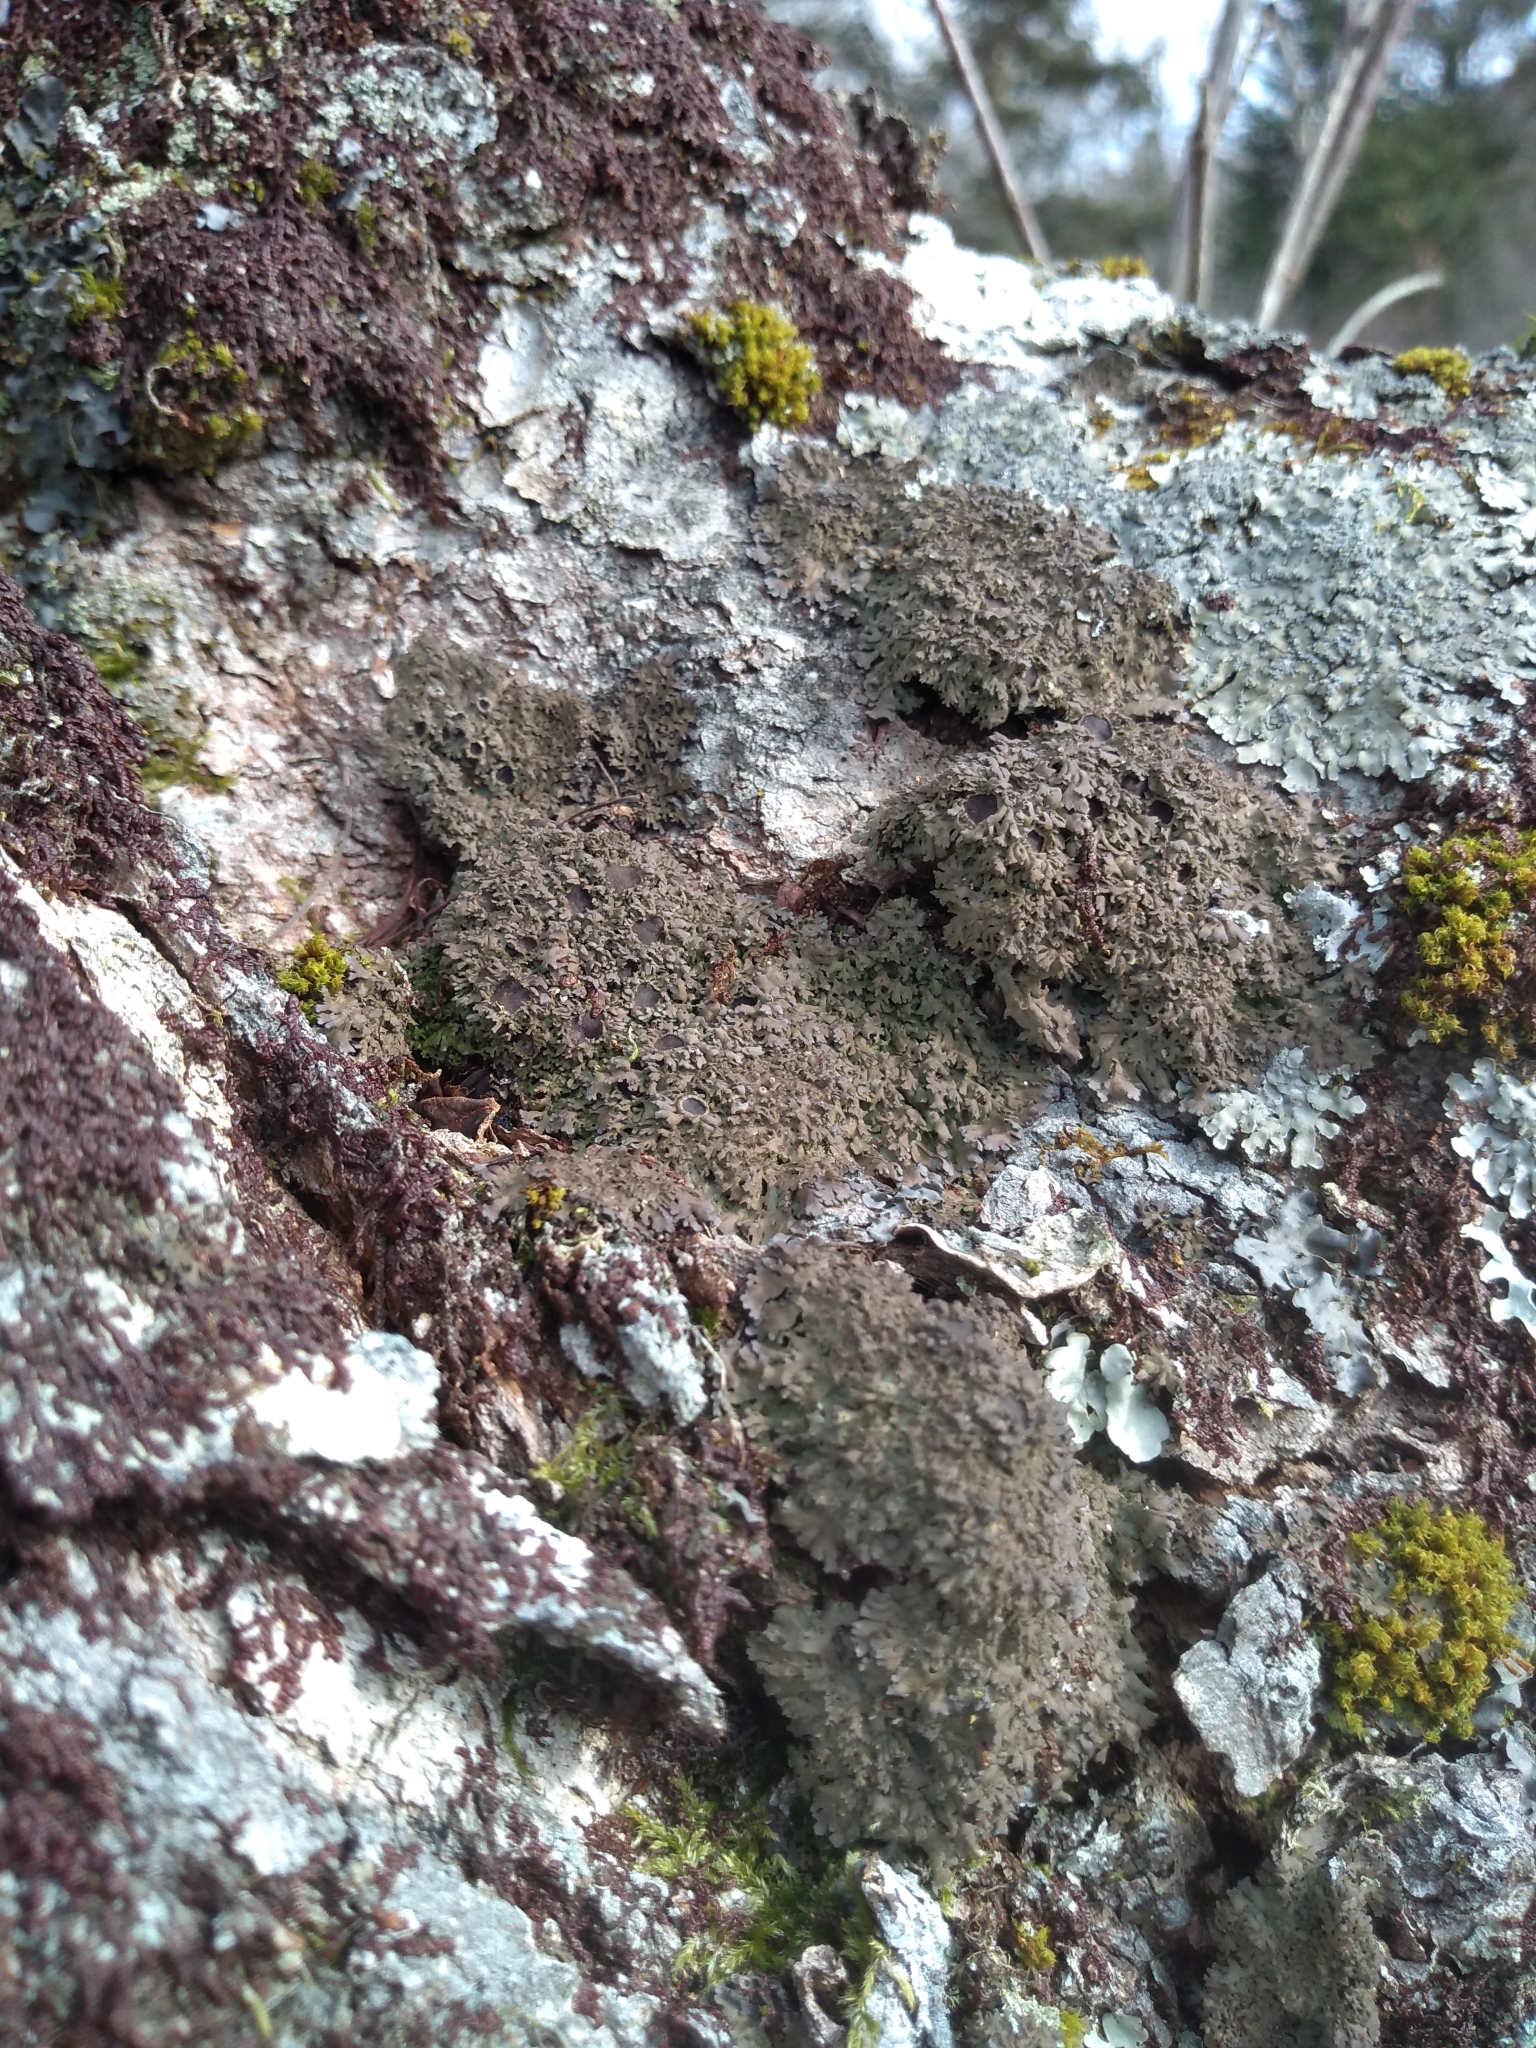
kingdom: Fungi
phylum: Ascomycota
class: Lecanoromycetes
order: Caliciales
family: Physciaceae
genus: Kurokawia
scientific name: Kurokawia palmulata
